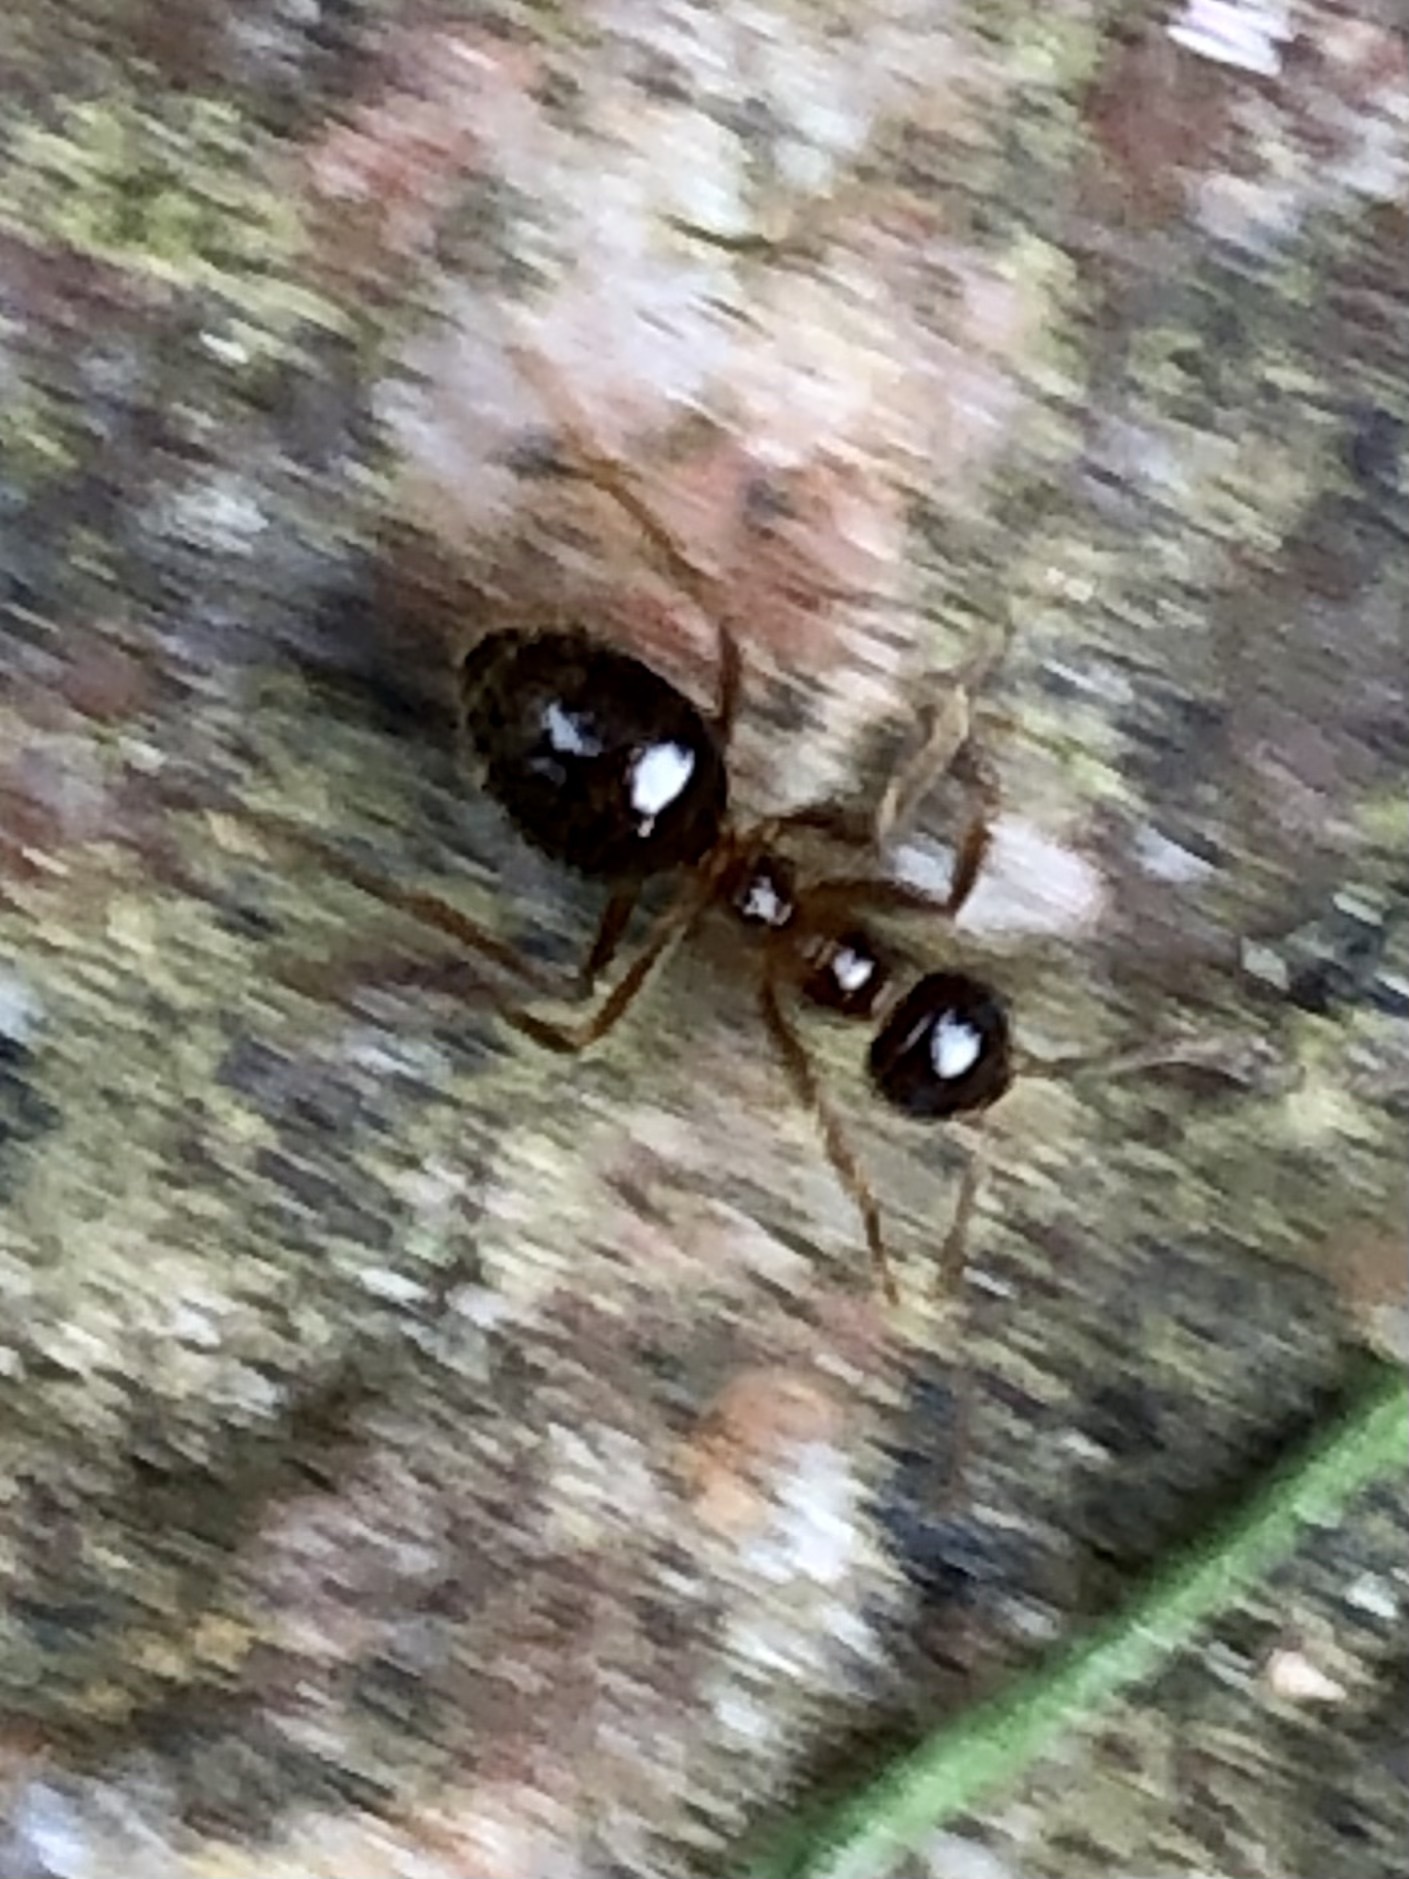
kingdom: Animalia
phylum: Arthropoda
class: Insecta
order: Hymenoptera
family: Formicidae
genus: Prenolepis
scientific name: Prenolepis imparis
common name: Small honey ant
